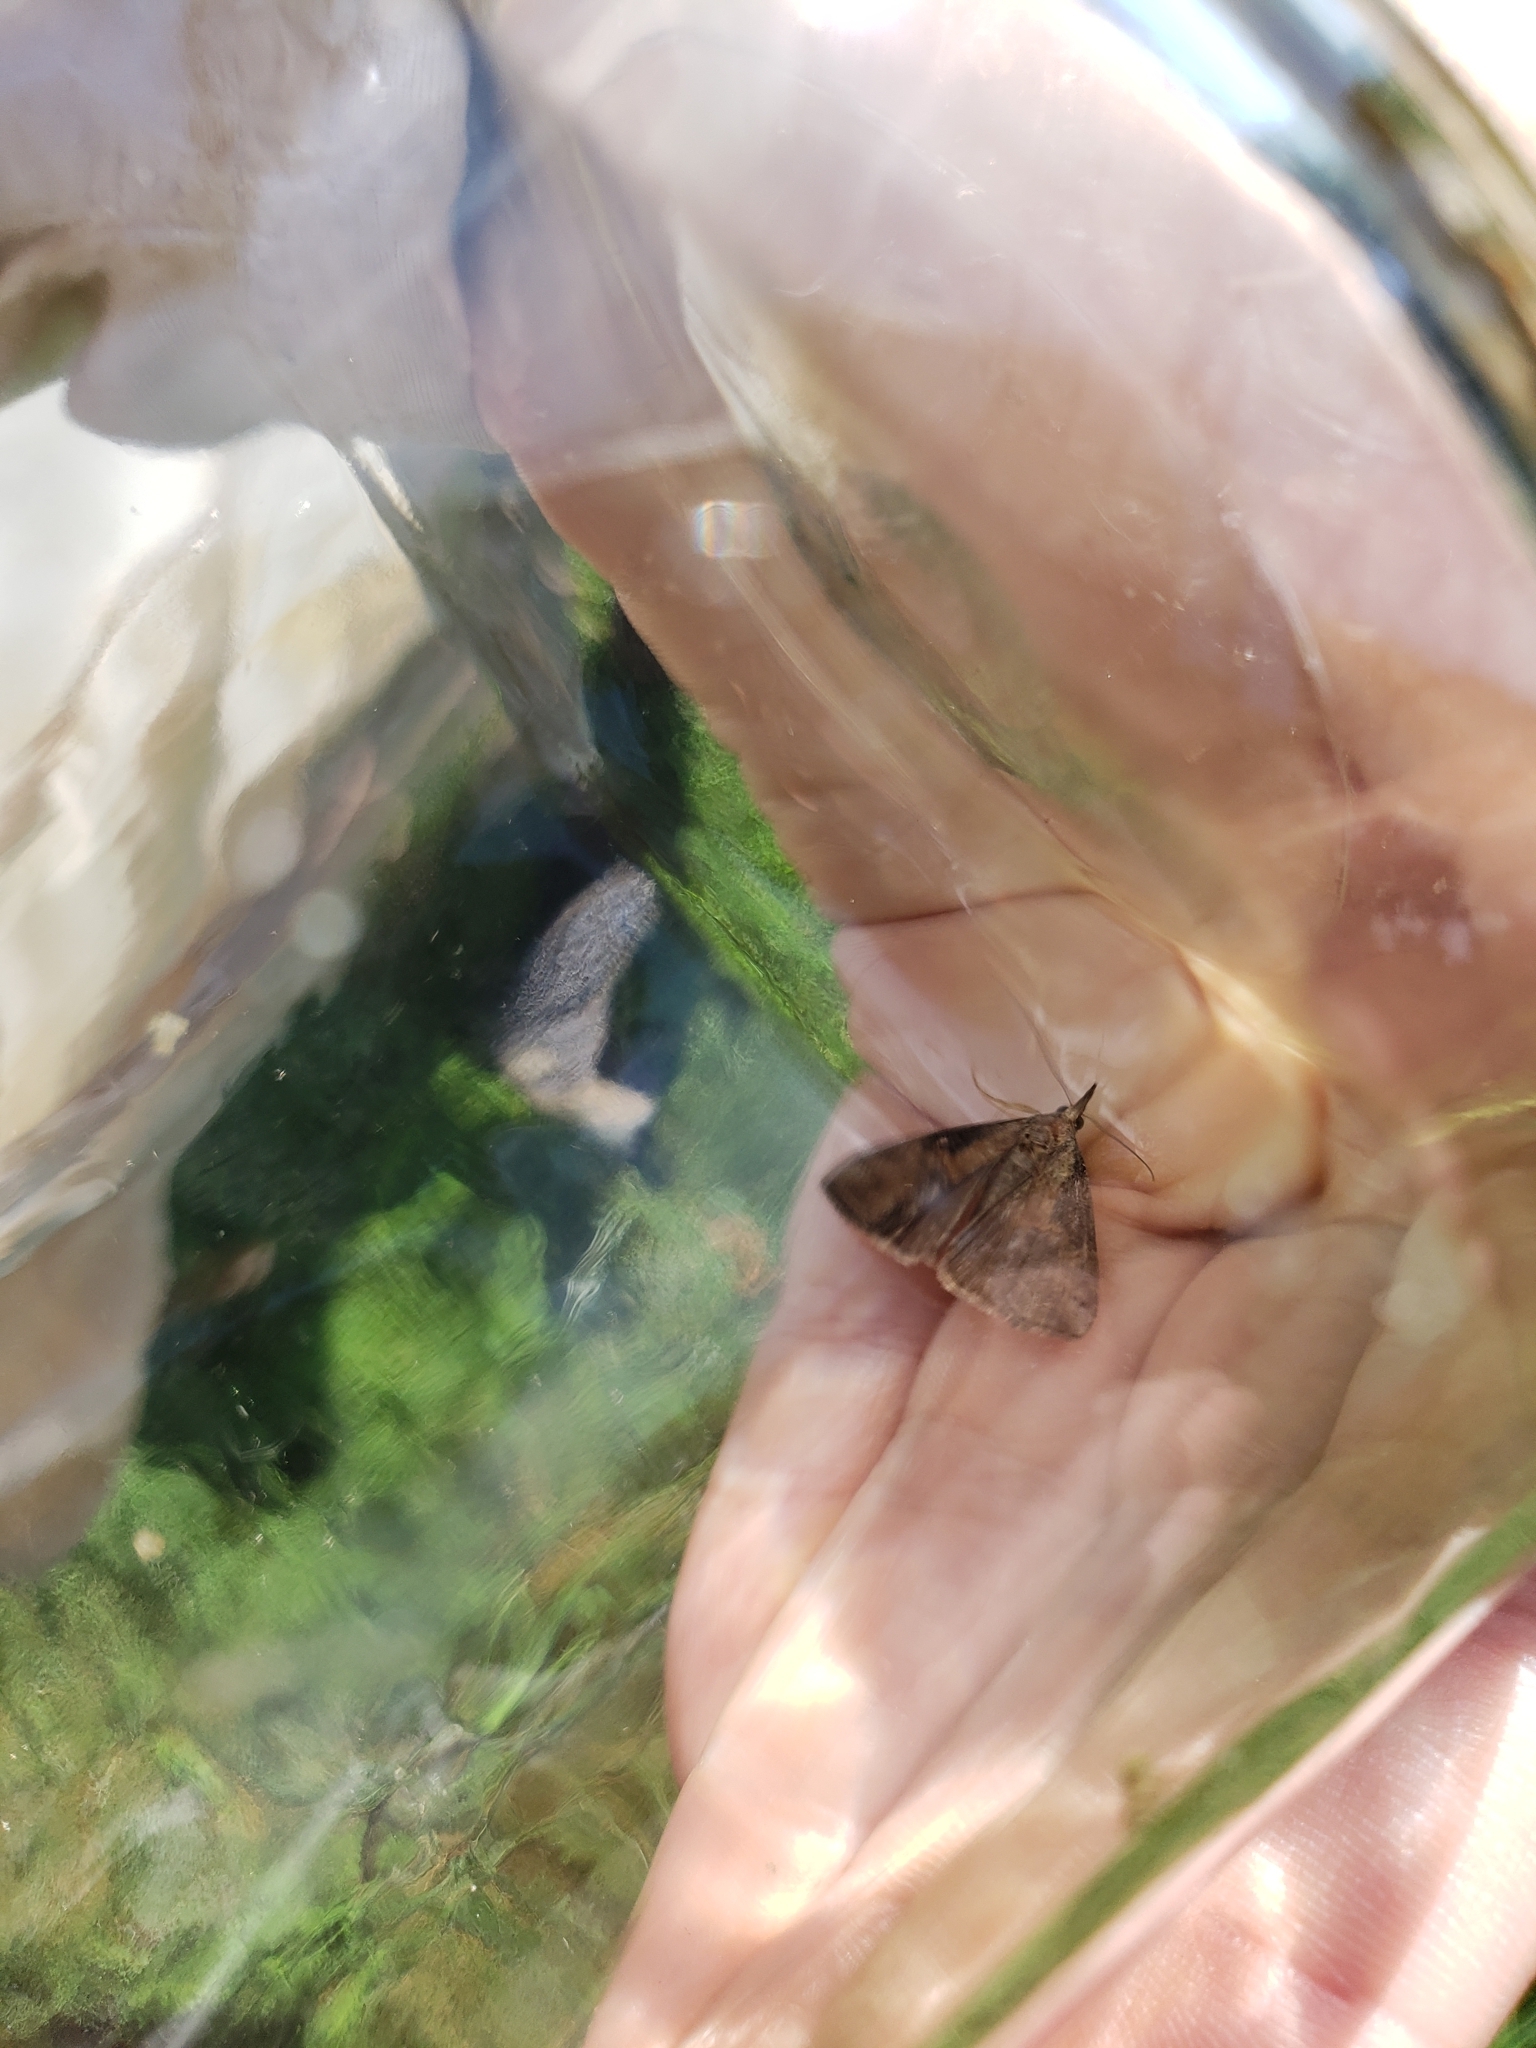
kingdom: Animalia
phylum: Arthropoda
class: Insecta
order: Lepidoptera
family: Erebidae
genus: Hypena
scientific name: Hypena scabra
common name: Green cloverworm
